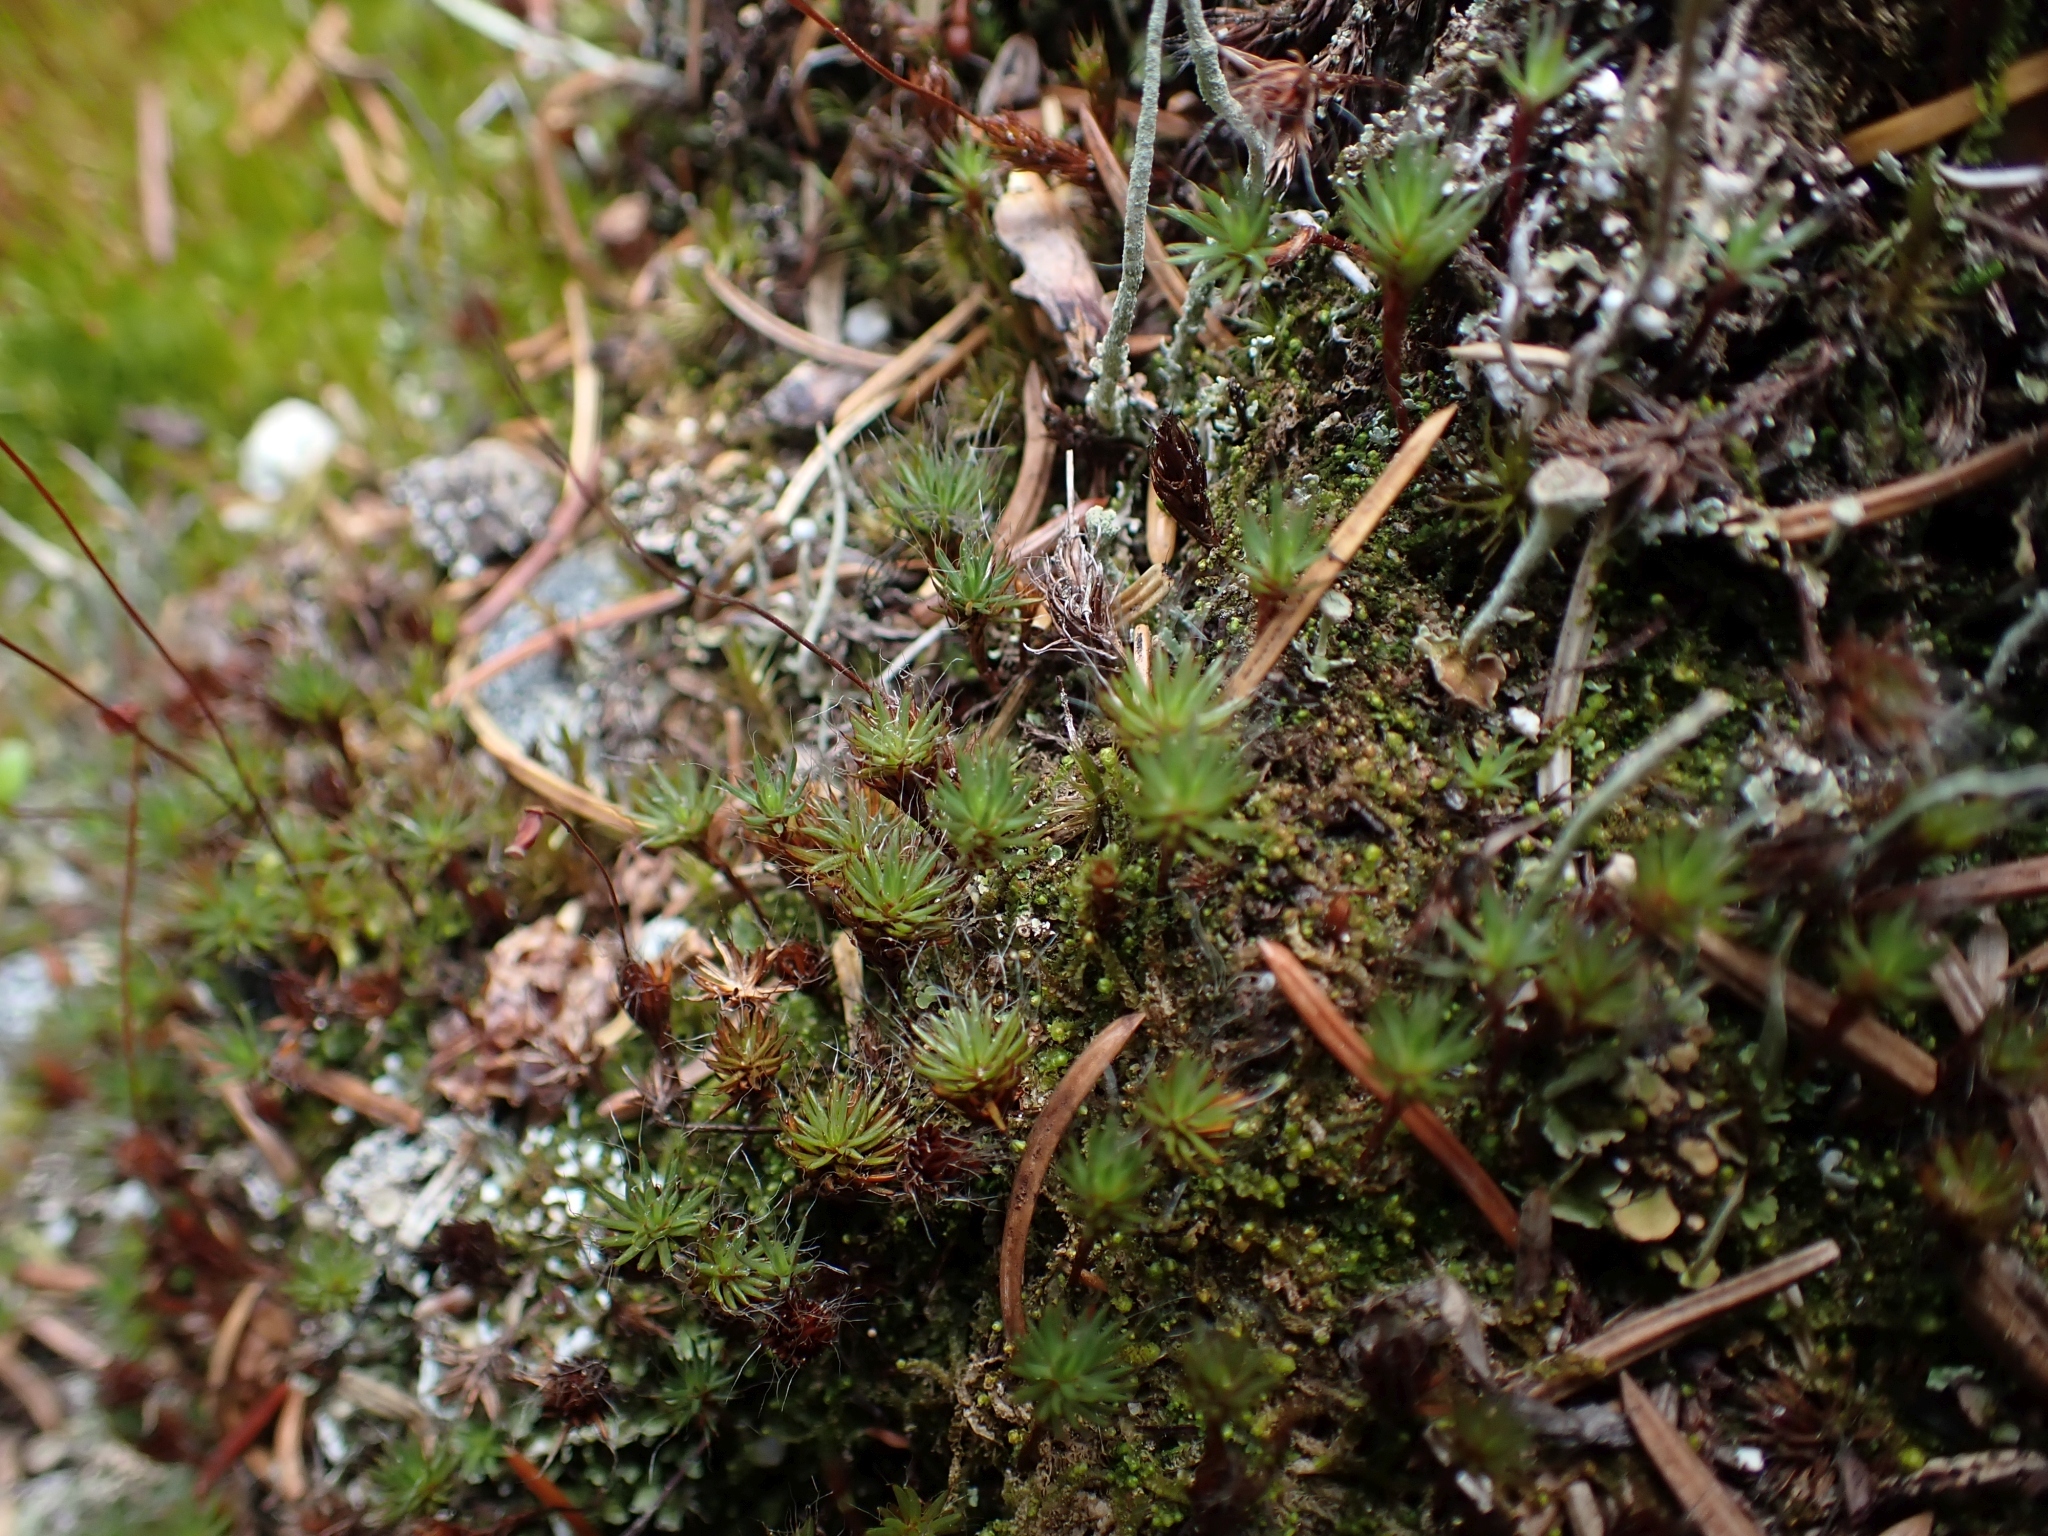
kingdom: Plantae
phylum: Bryophyta
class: Polytrichopsida
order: Polytrichales
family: Polytrichaceae
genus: Polytrichum
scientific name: Polytrichum piliferum
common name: Bristly haircap
